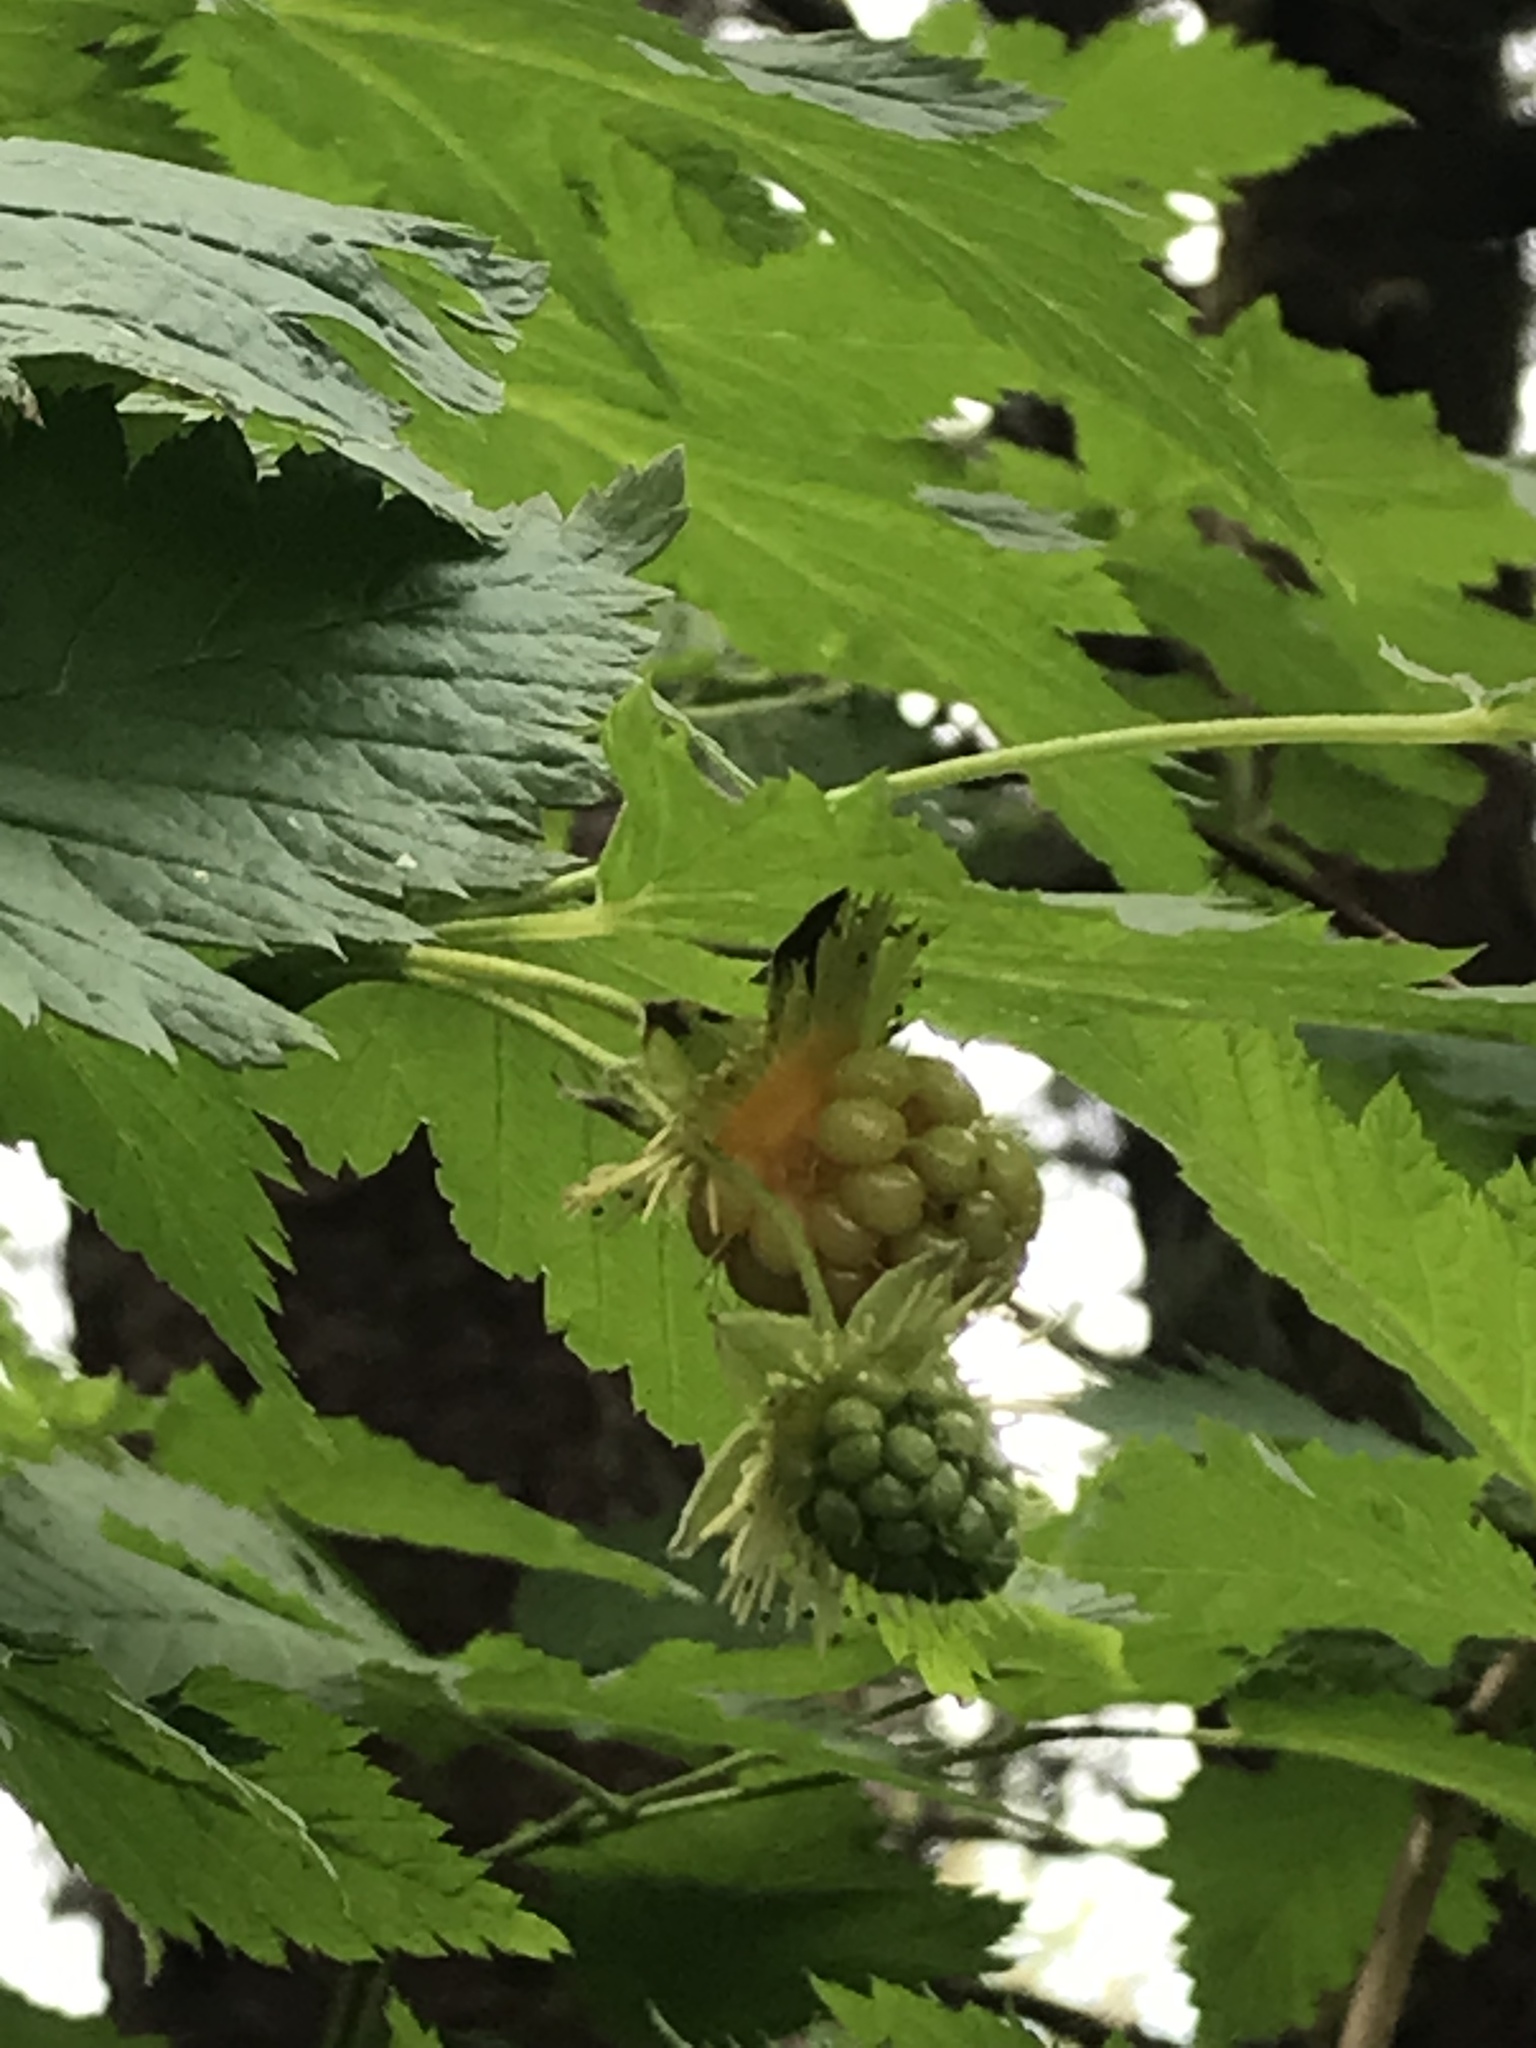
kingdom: Plantae
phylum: Tracheophyta
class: Magnoliopsida
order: Rosales
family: Rosaceae
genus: Rubus
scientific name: Rubus spectabilis
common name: Salmonberry
